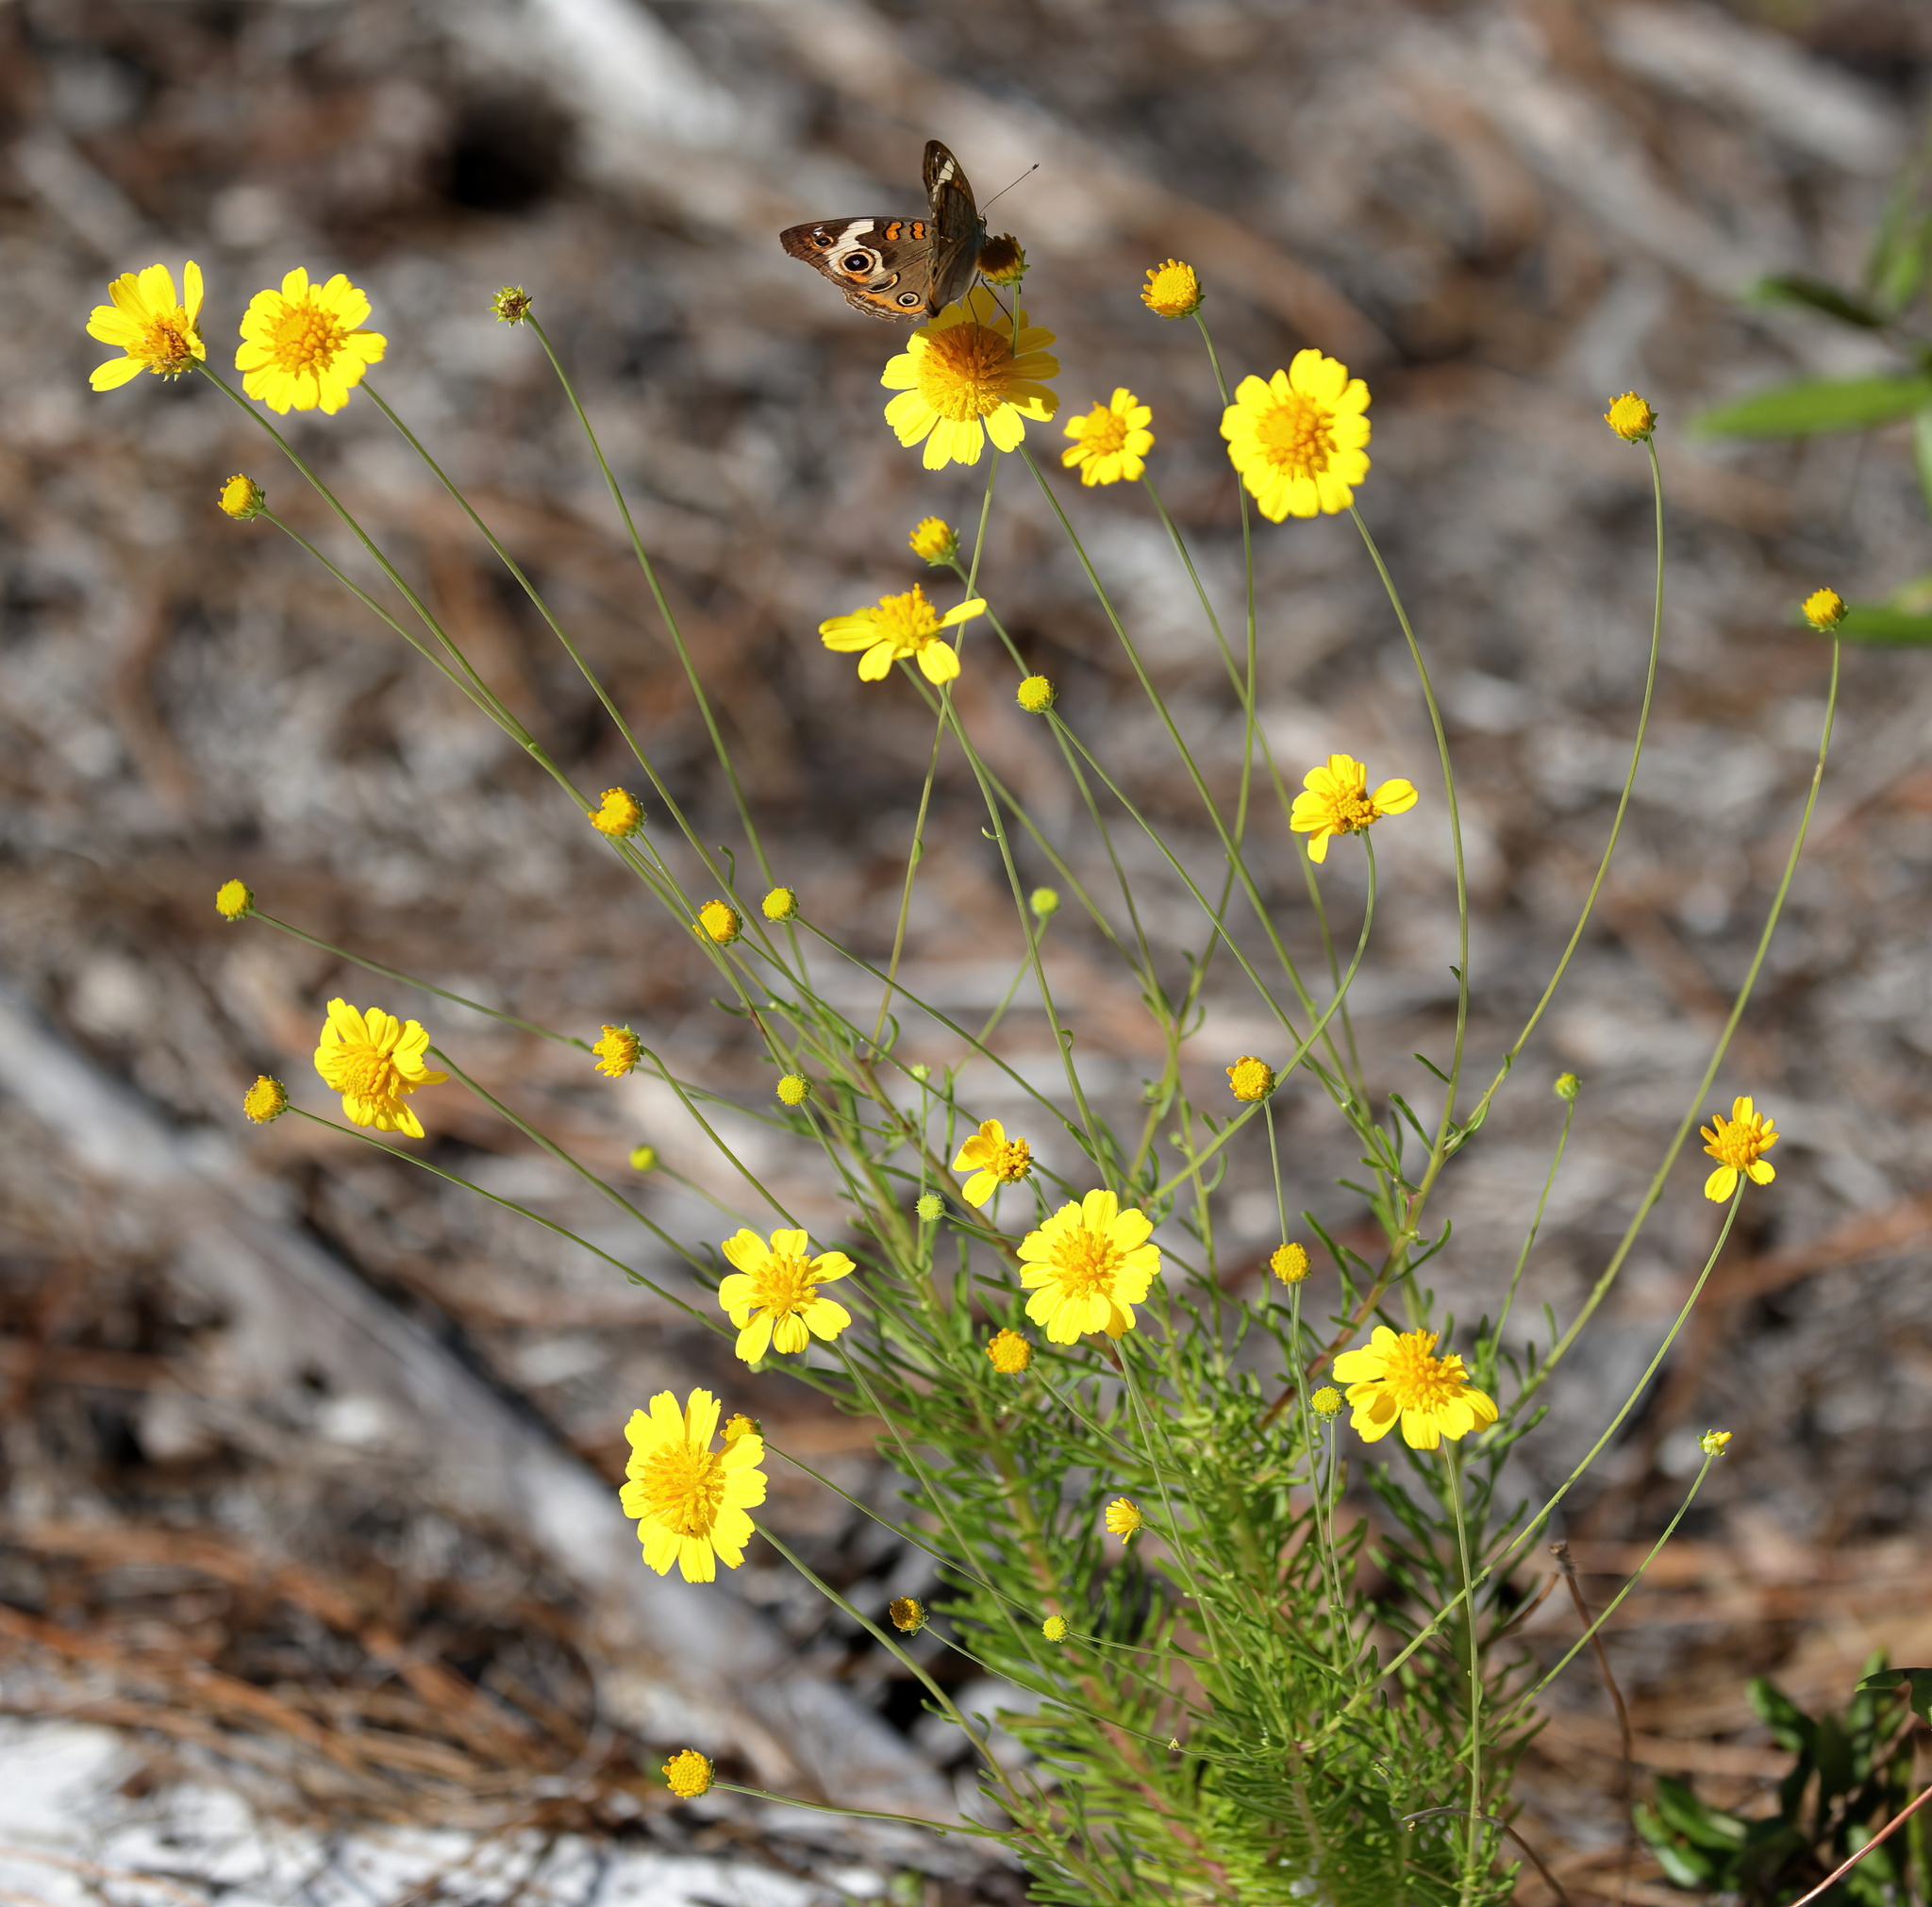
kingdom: Plantae
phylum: Tracheophyta
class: Magnoliopsida
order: Asterales
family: Asteraceae
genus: Balduina
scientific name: Balduina angustifolia
